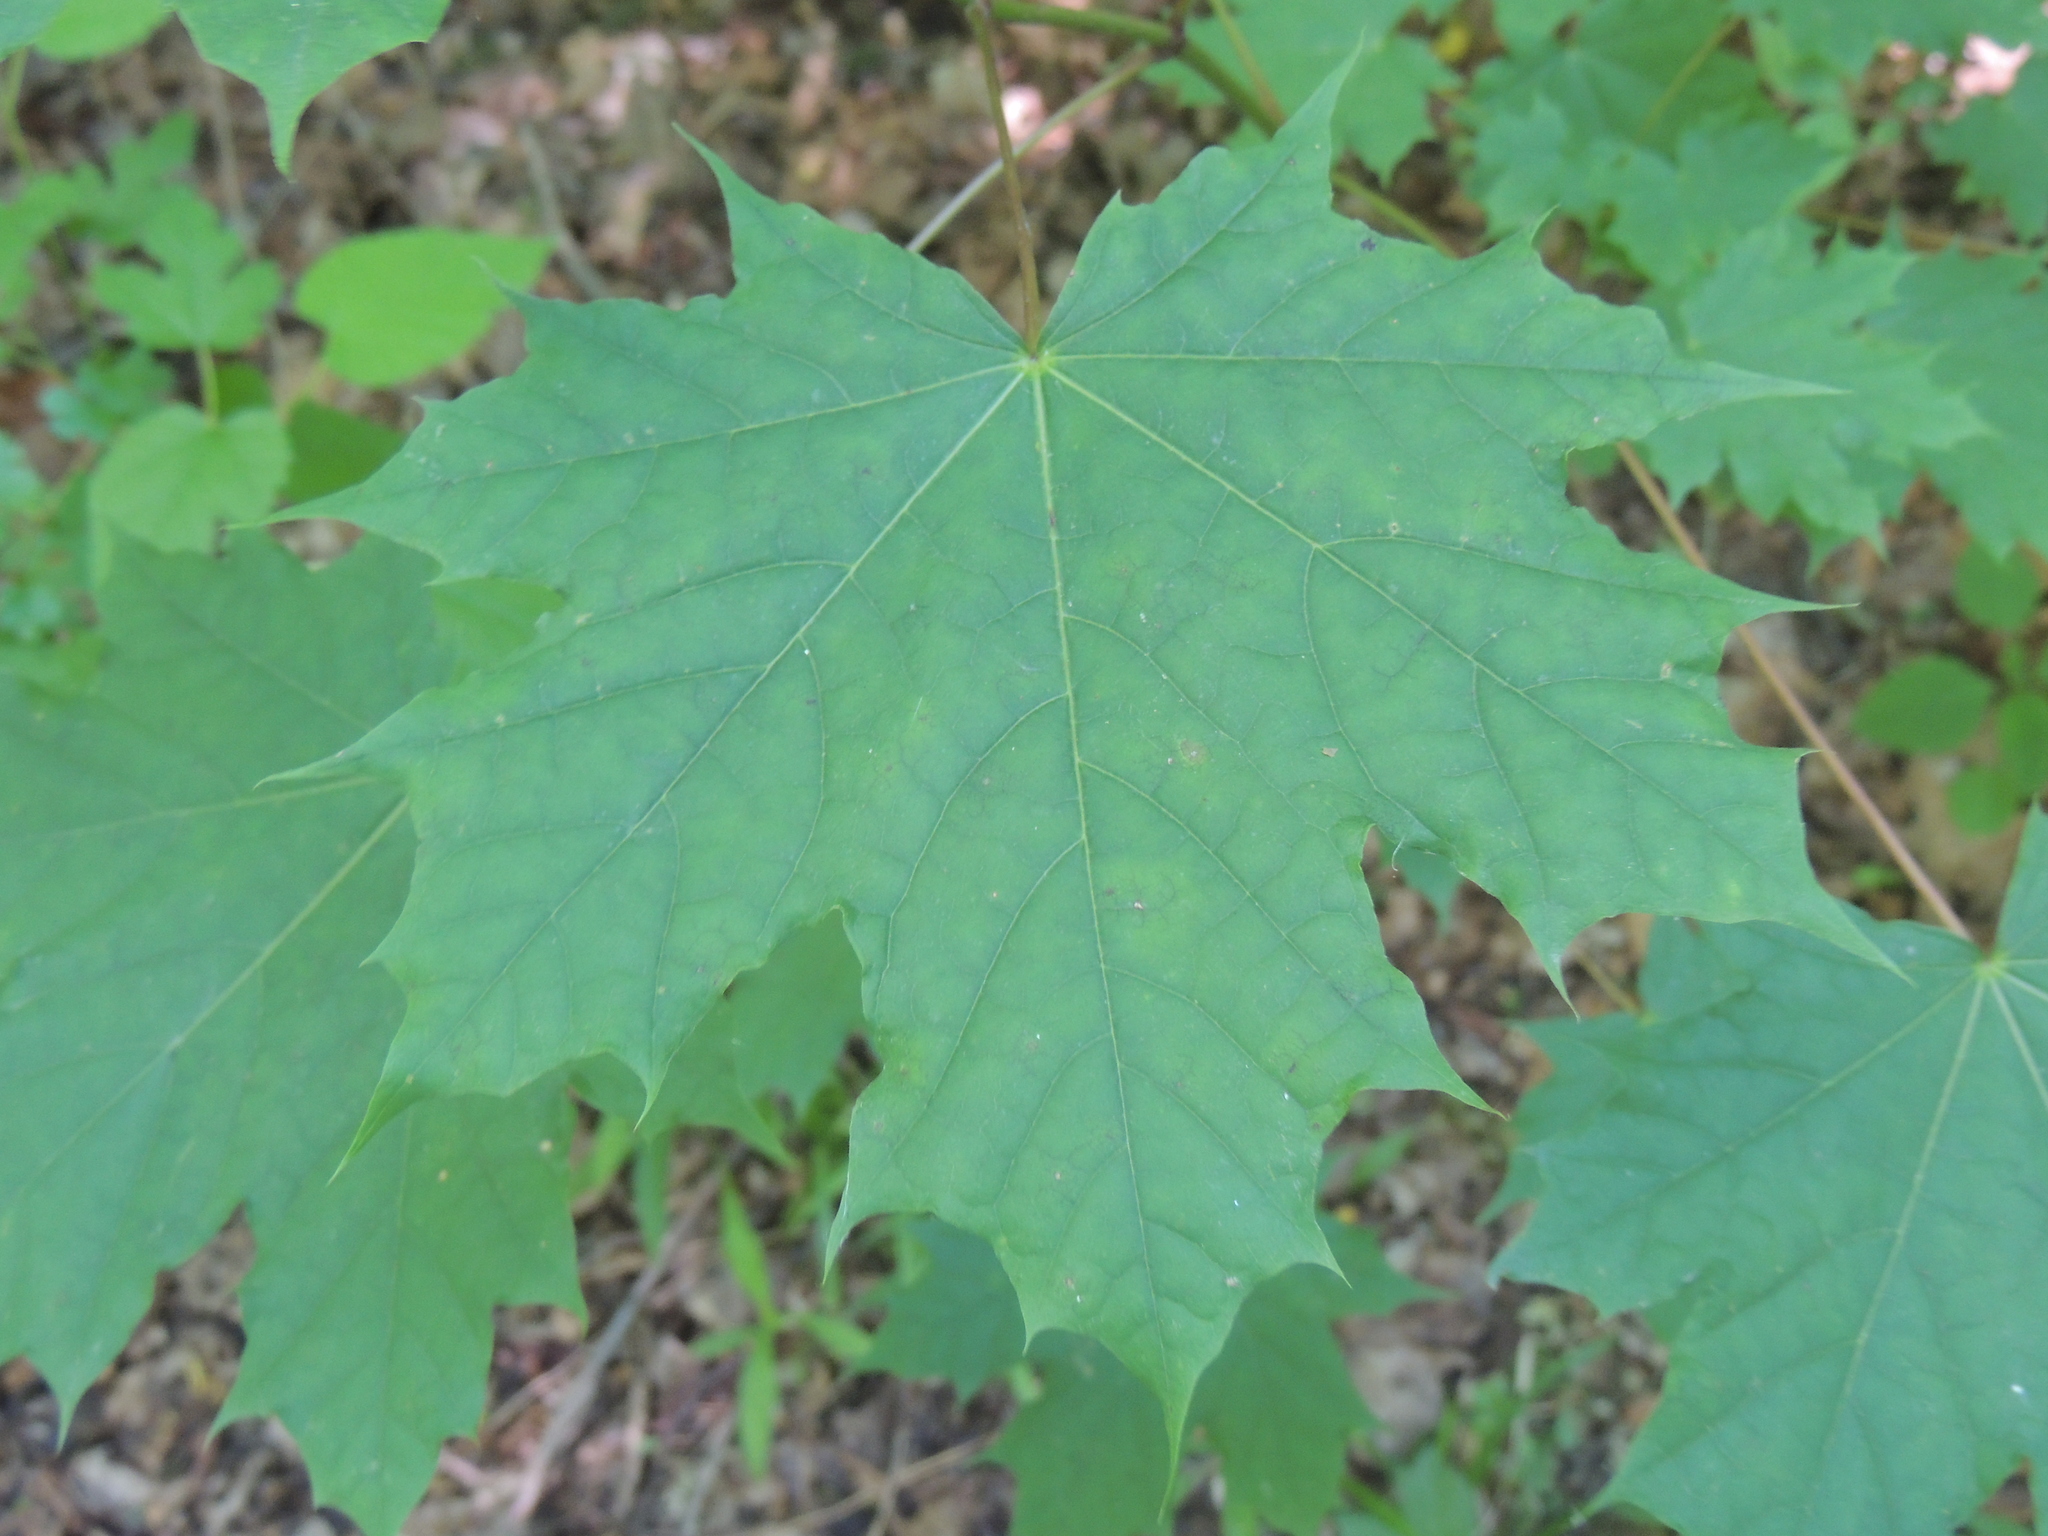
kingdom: Plantae
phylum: Tracheophyta
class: Magnoliopsida
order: Sapindales
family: Sapindaceae
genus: Acer
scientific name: Acer platanoides
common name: Norway maple
